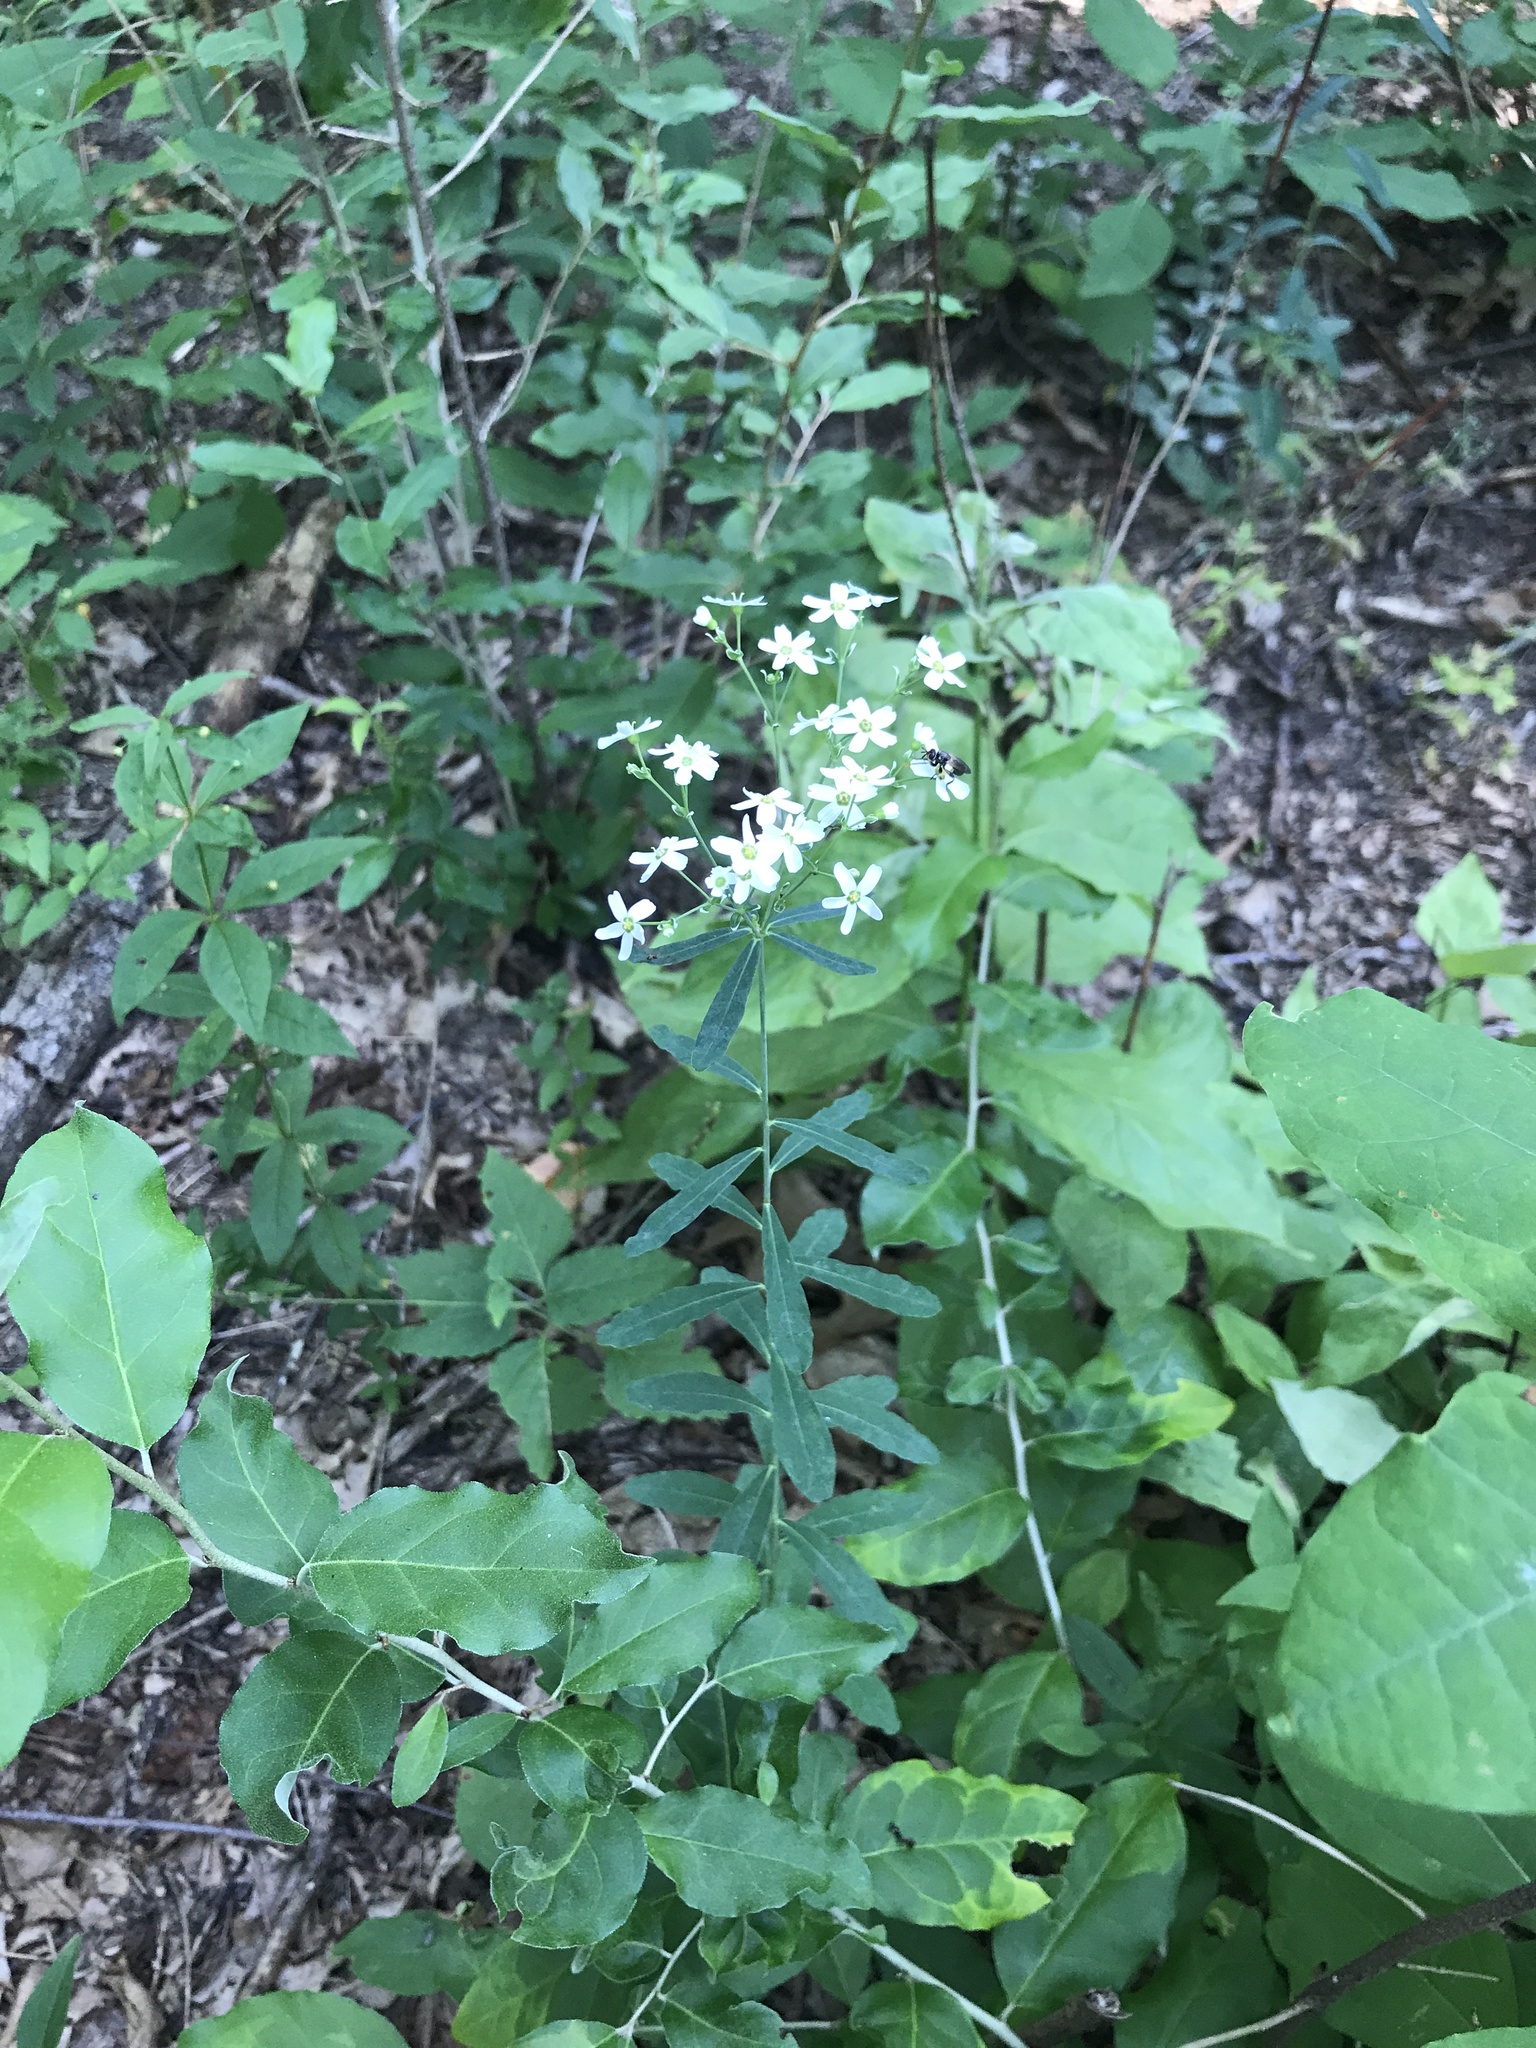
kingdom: Plantae
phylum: Tracheophyta
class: Magnoliopsida
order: Malpighiales
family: Euphorbiaceae
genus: Euphorbia
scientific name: Euphorbia corollata
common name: Flowering spurge
